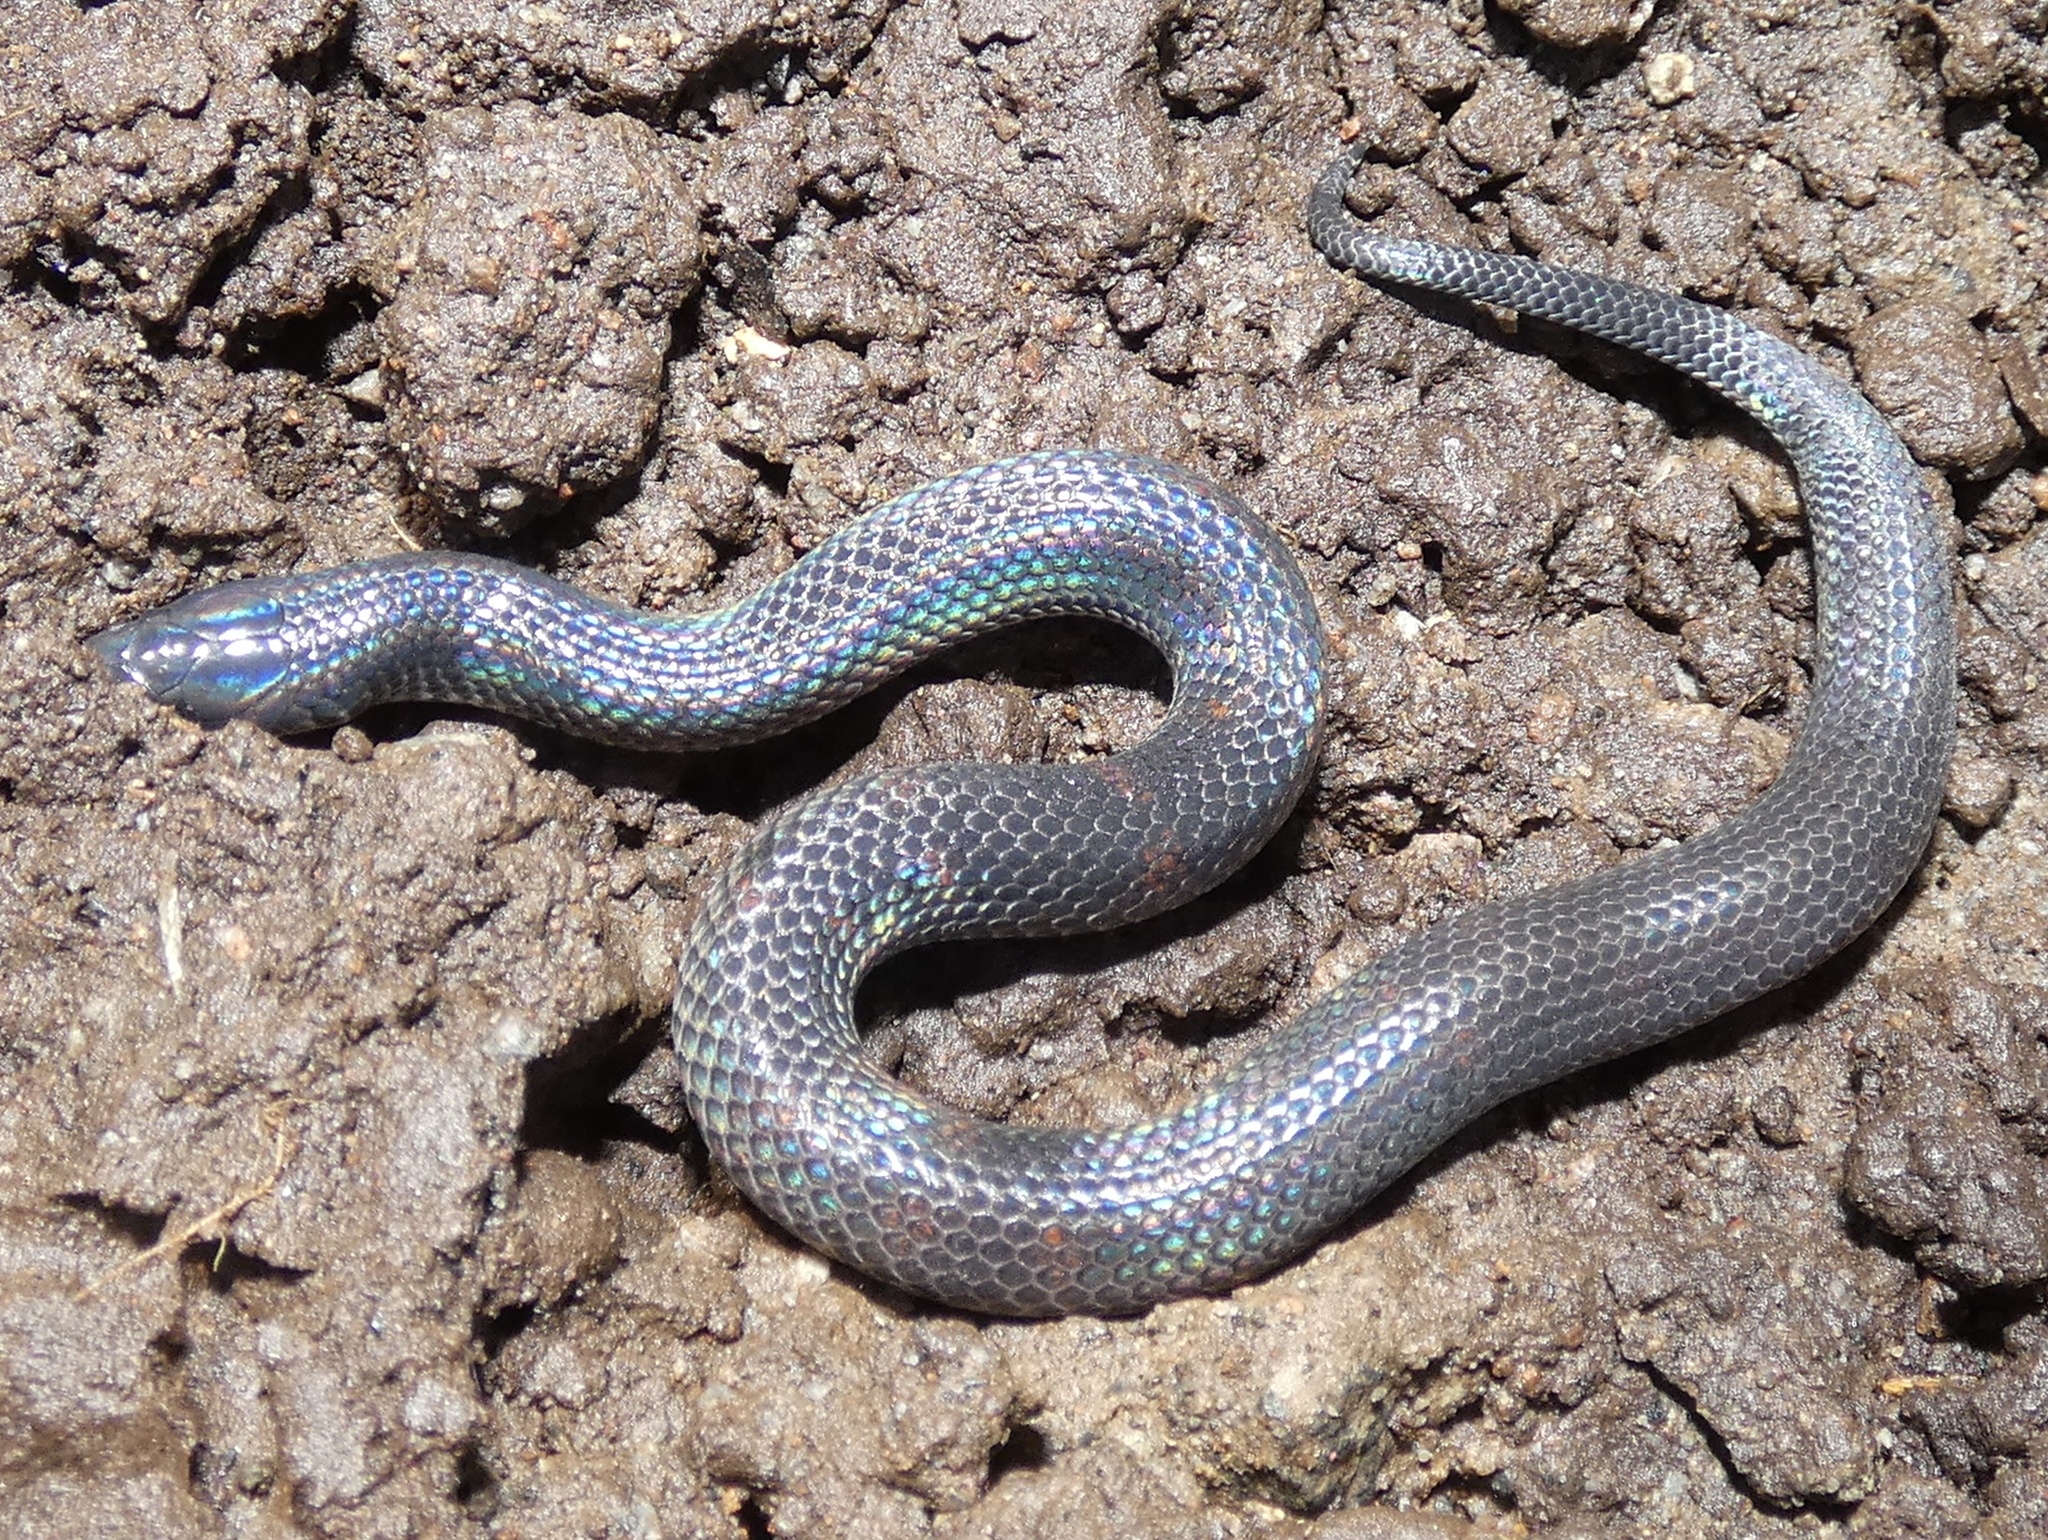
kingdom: Animalia
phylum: Chordata
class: Squamata
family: Colubridae
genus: Geophis
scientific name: Geophis talamancae
